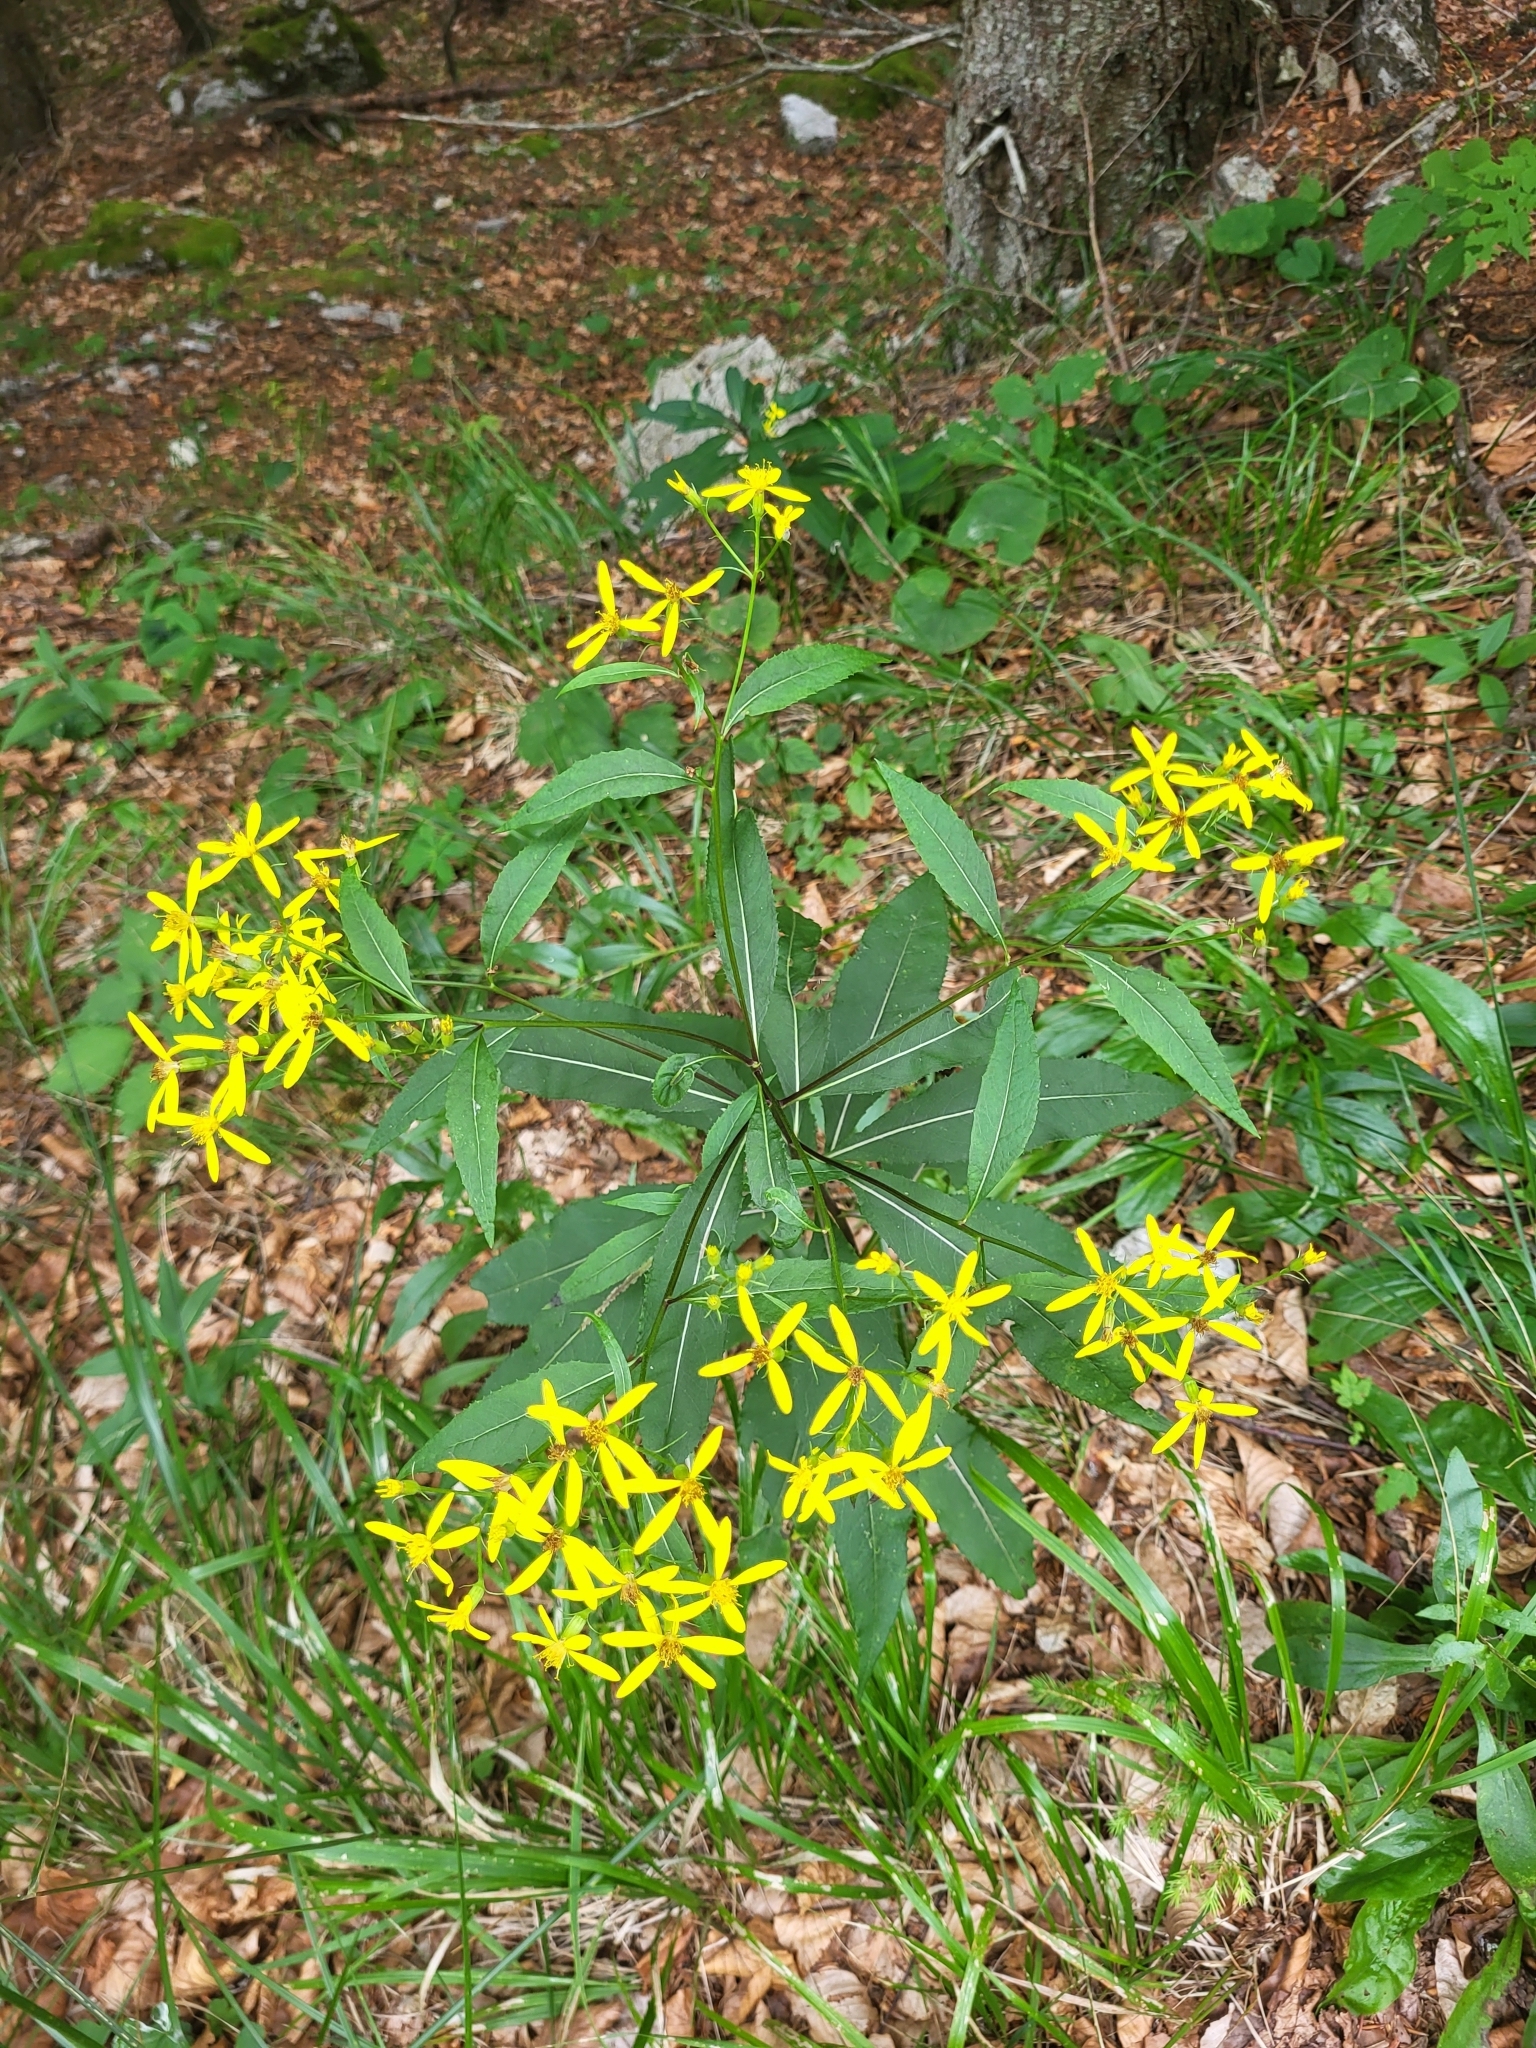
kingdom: Plantae
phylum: Tracheophyta
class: Magnoliopsida
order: Asterales
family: Asteraceae
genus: Senecio
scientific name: Senecio ovatus
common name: Wood ragwort
